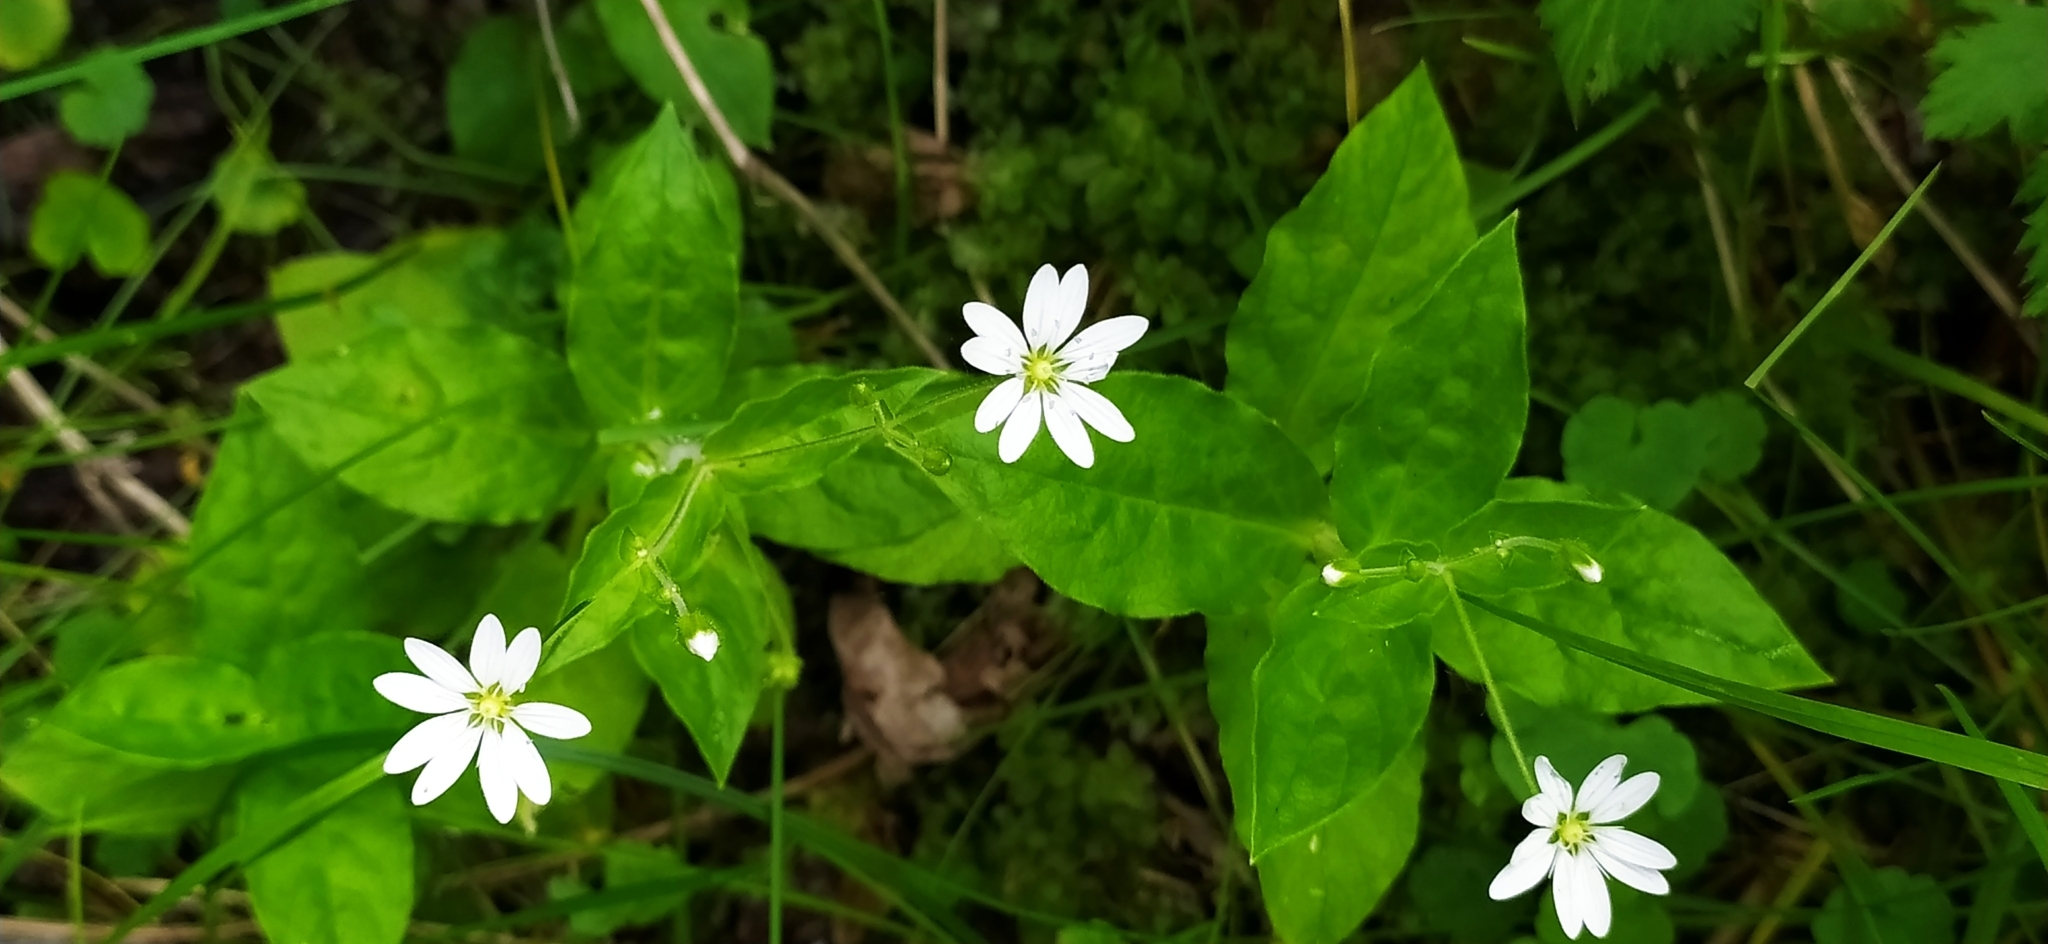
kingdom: Plantae
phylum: Tracheophyta
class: Magnoliopsida
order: Caryophyllales
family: Caryophyllaceae
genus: Stellaria
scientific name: Stellaria bungeana
